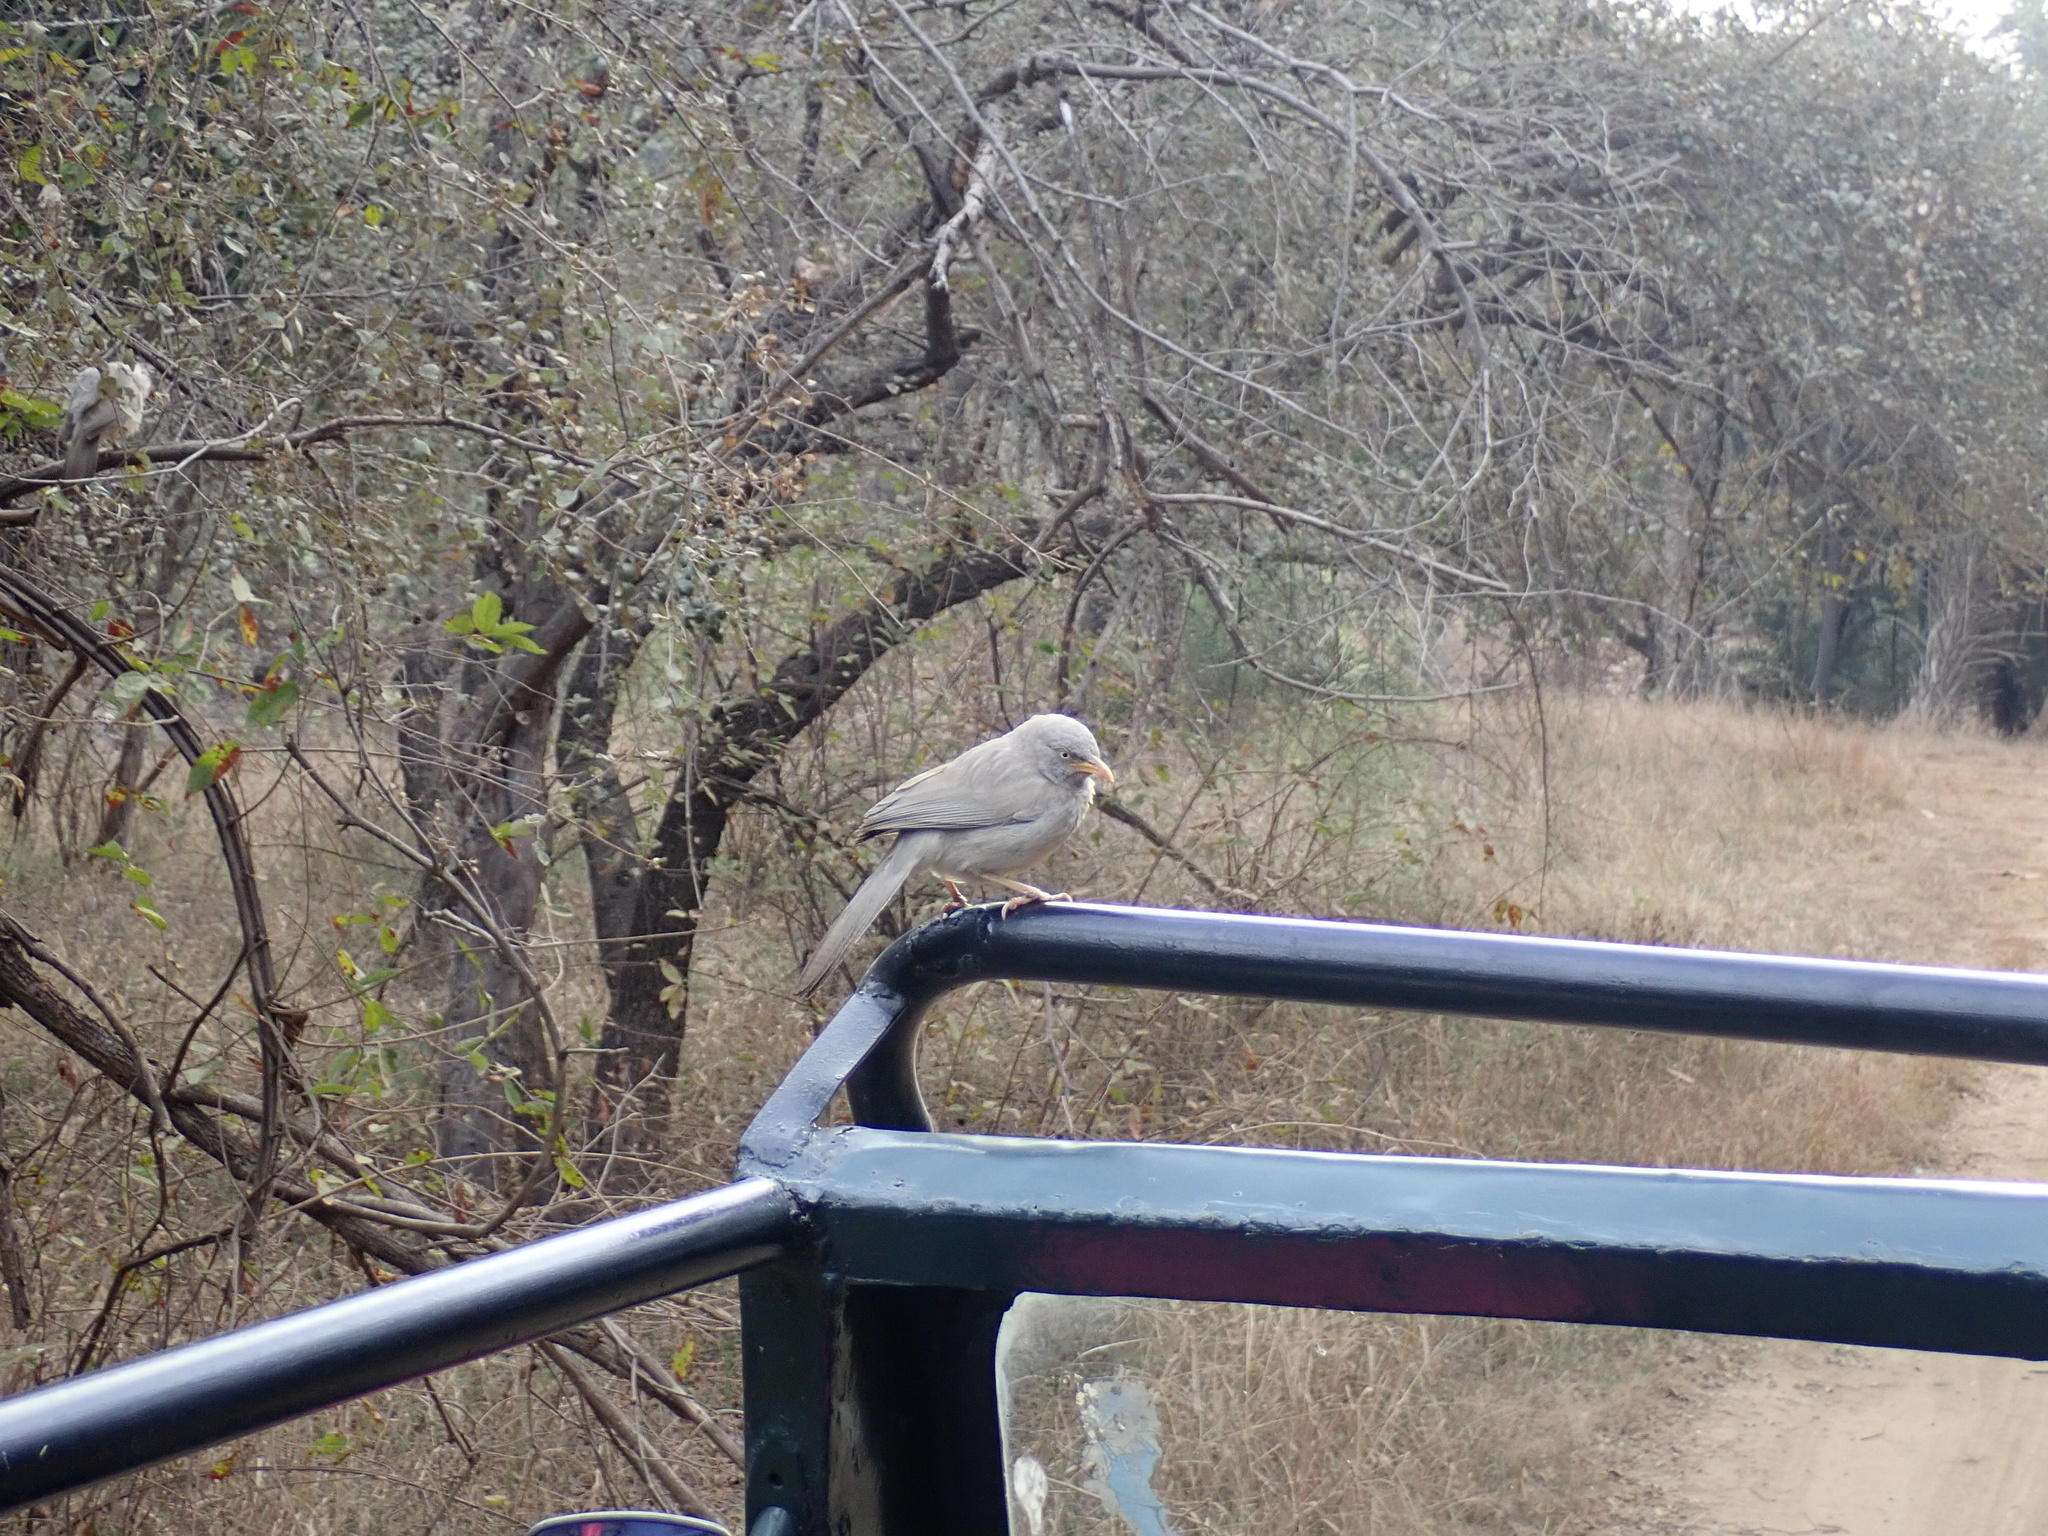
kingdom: Animalia
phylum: Chordata
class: Aves
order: Passeriformes
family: Leiothrichidae
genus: Turdoides
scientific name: Turdoides striata
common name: Jungle babbler
